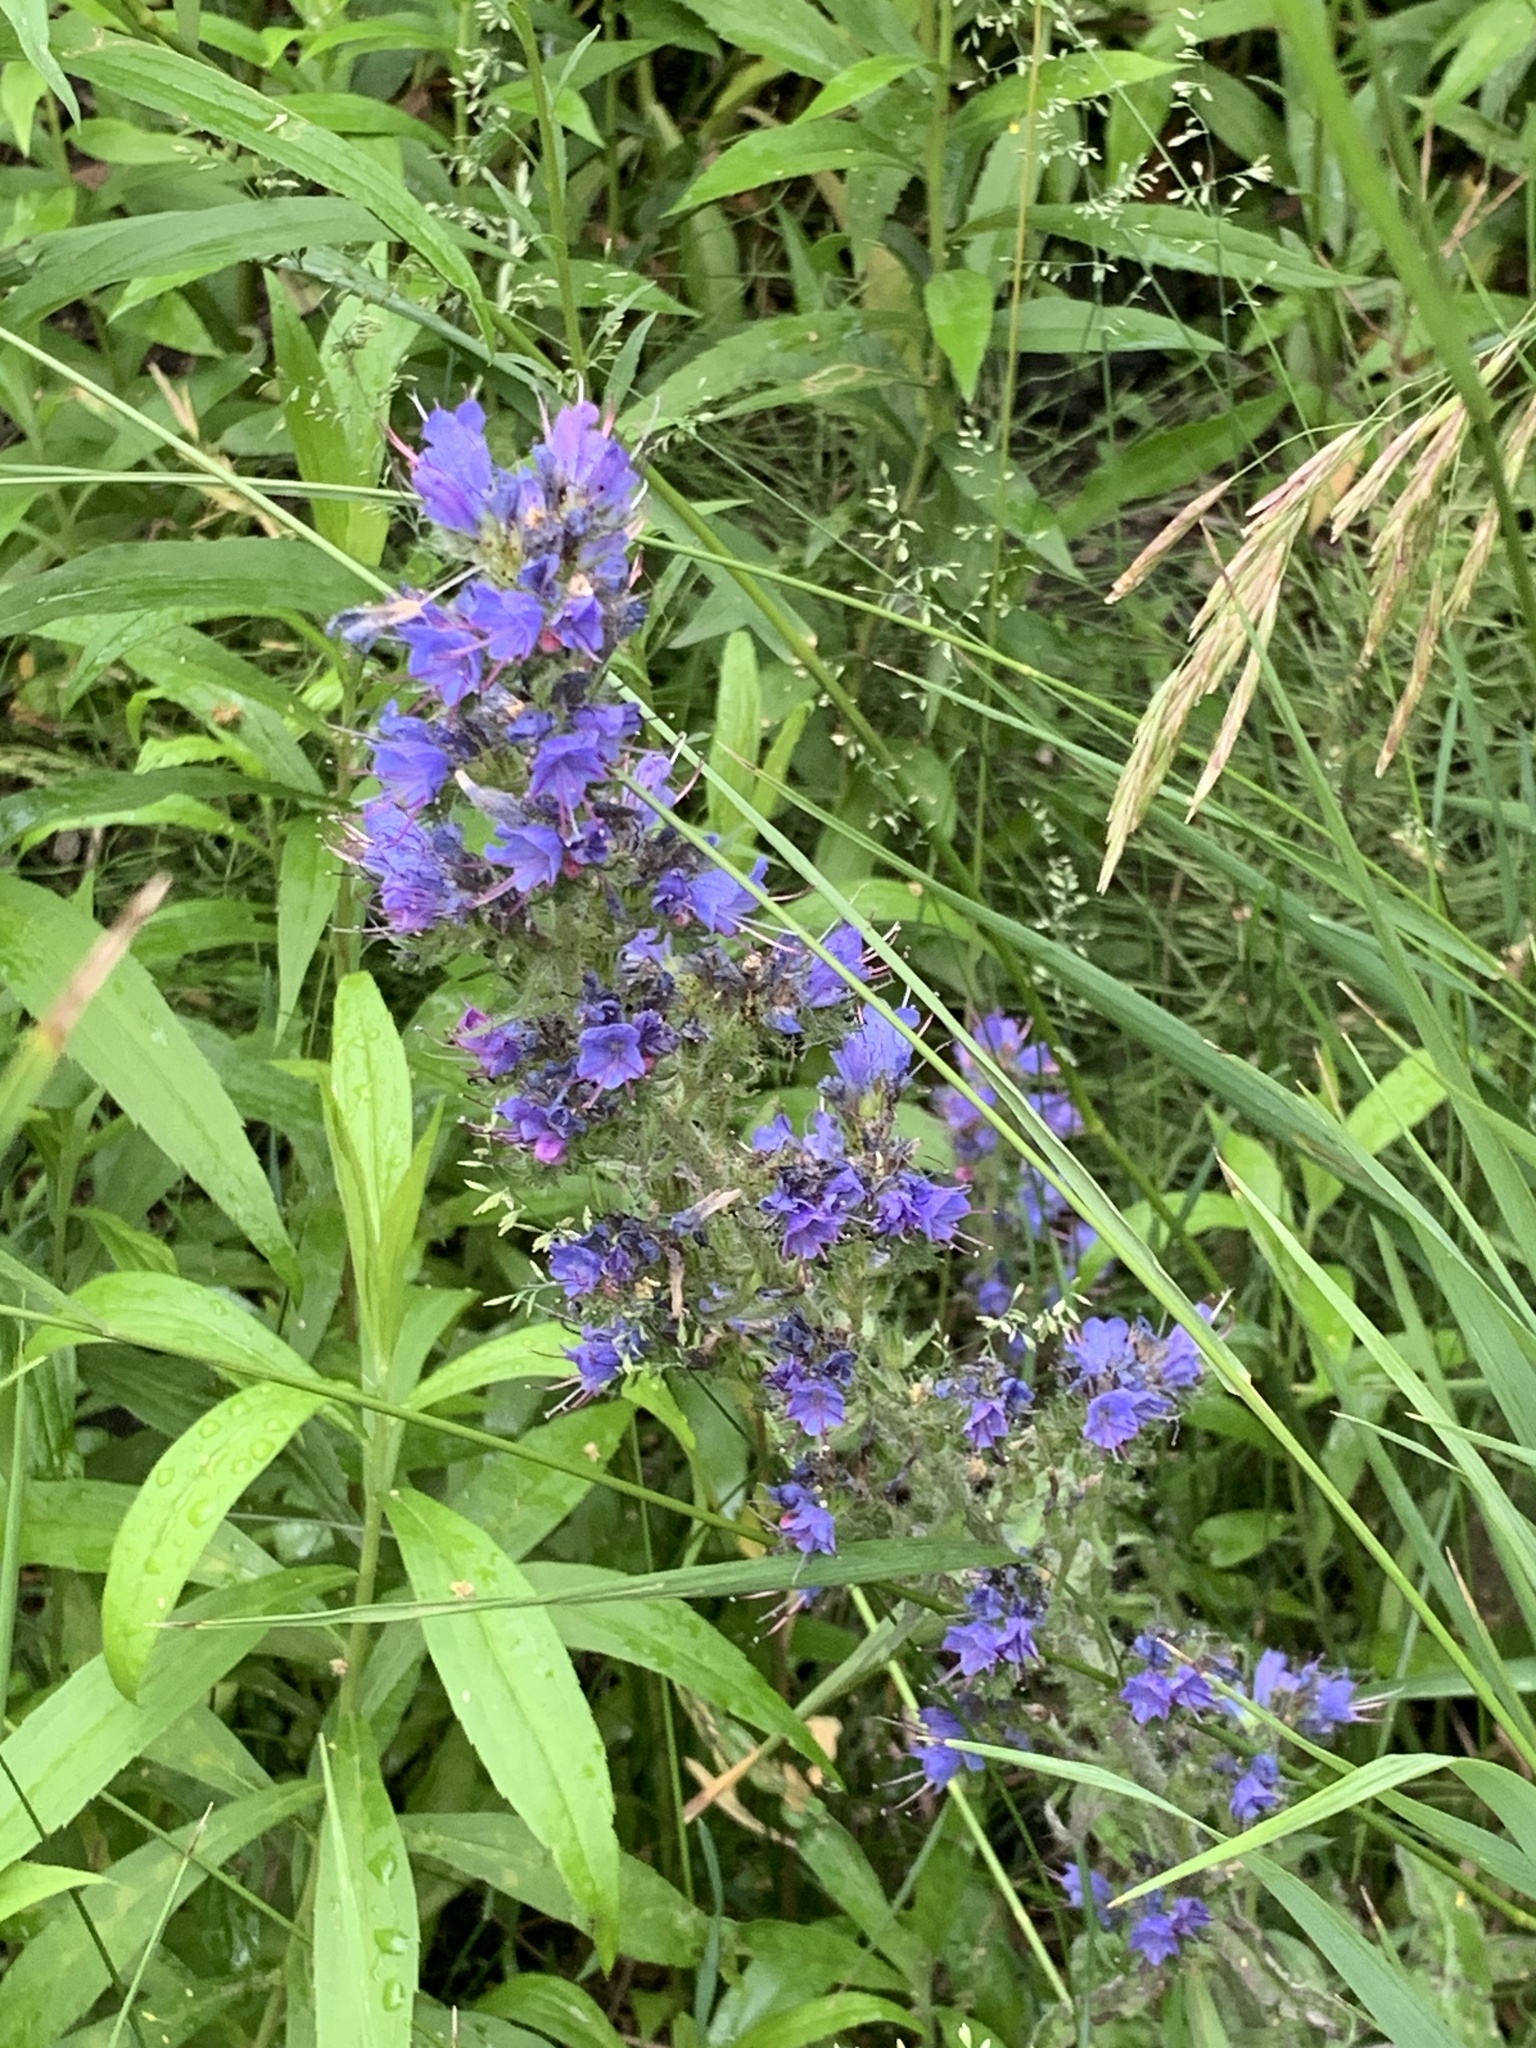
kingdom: Plantae
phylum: Tracheophyta
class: Magnoliopsida
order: Boraginales
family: Boraginaceae
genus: Echium
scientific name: Echium vulgare
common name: Common viper's bugloss
